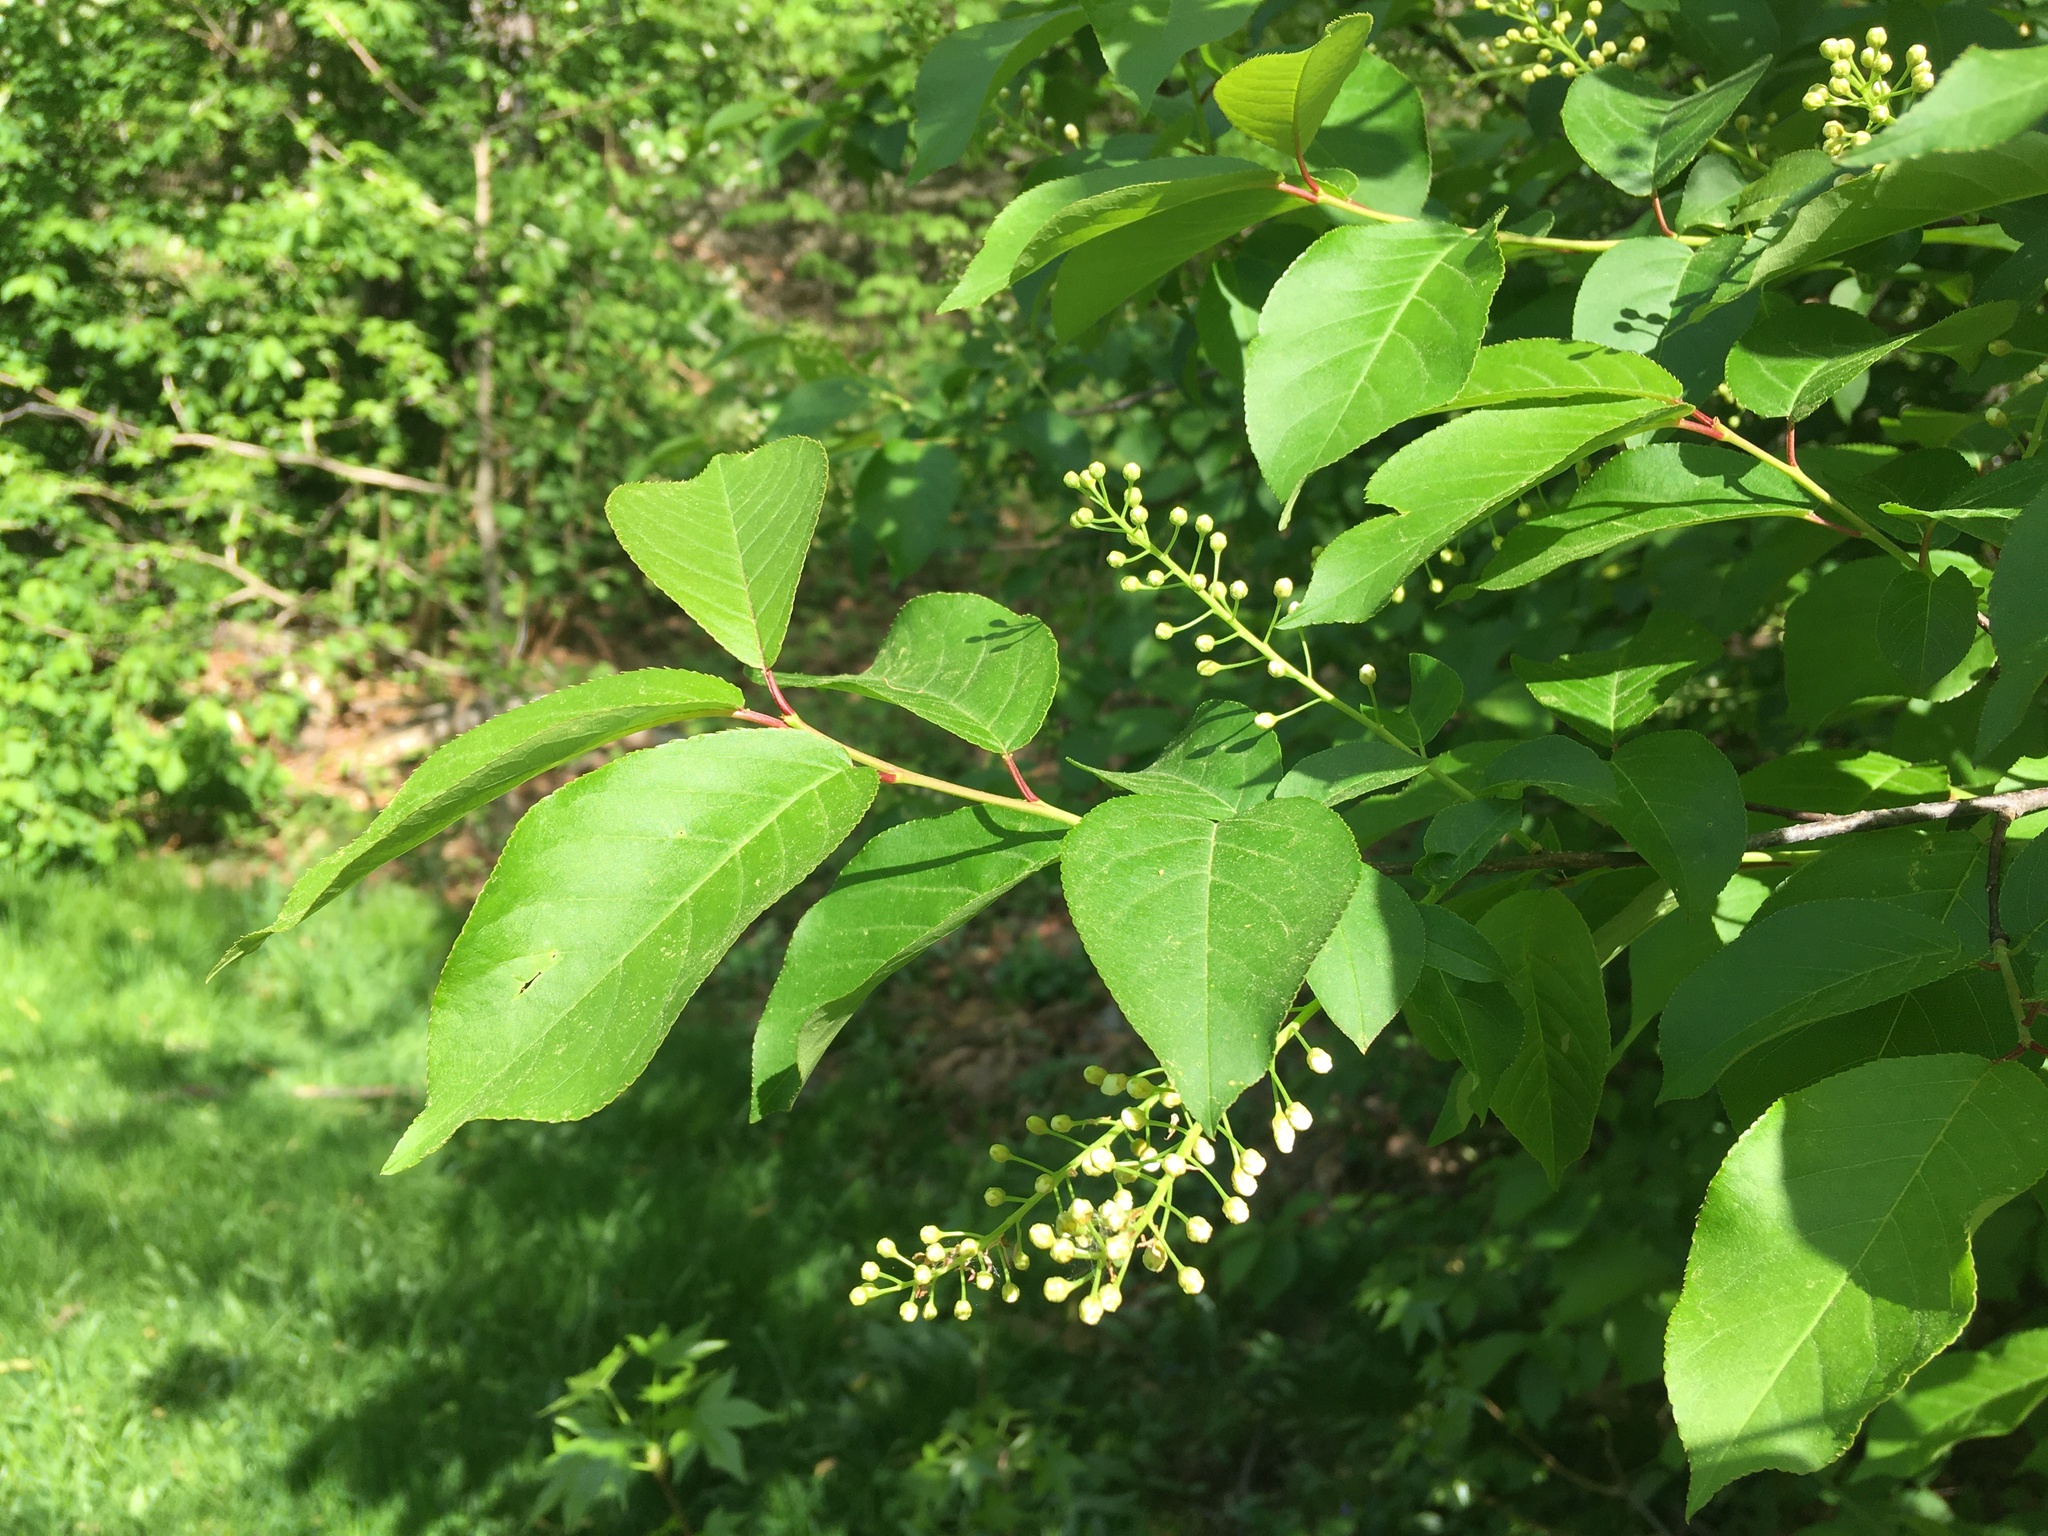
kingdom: Plantae
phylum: Tracheophyta
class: Magnoliopsida
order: Rosales
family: Rosaceae
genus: Prunus
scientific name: Prunus virginiana
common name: Chokecherry
